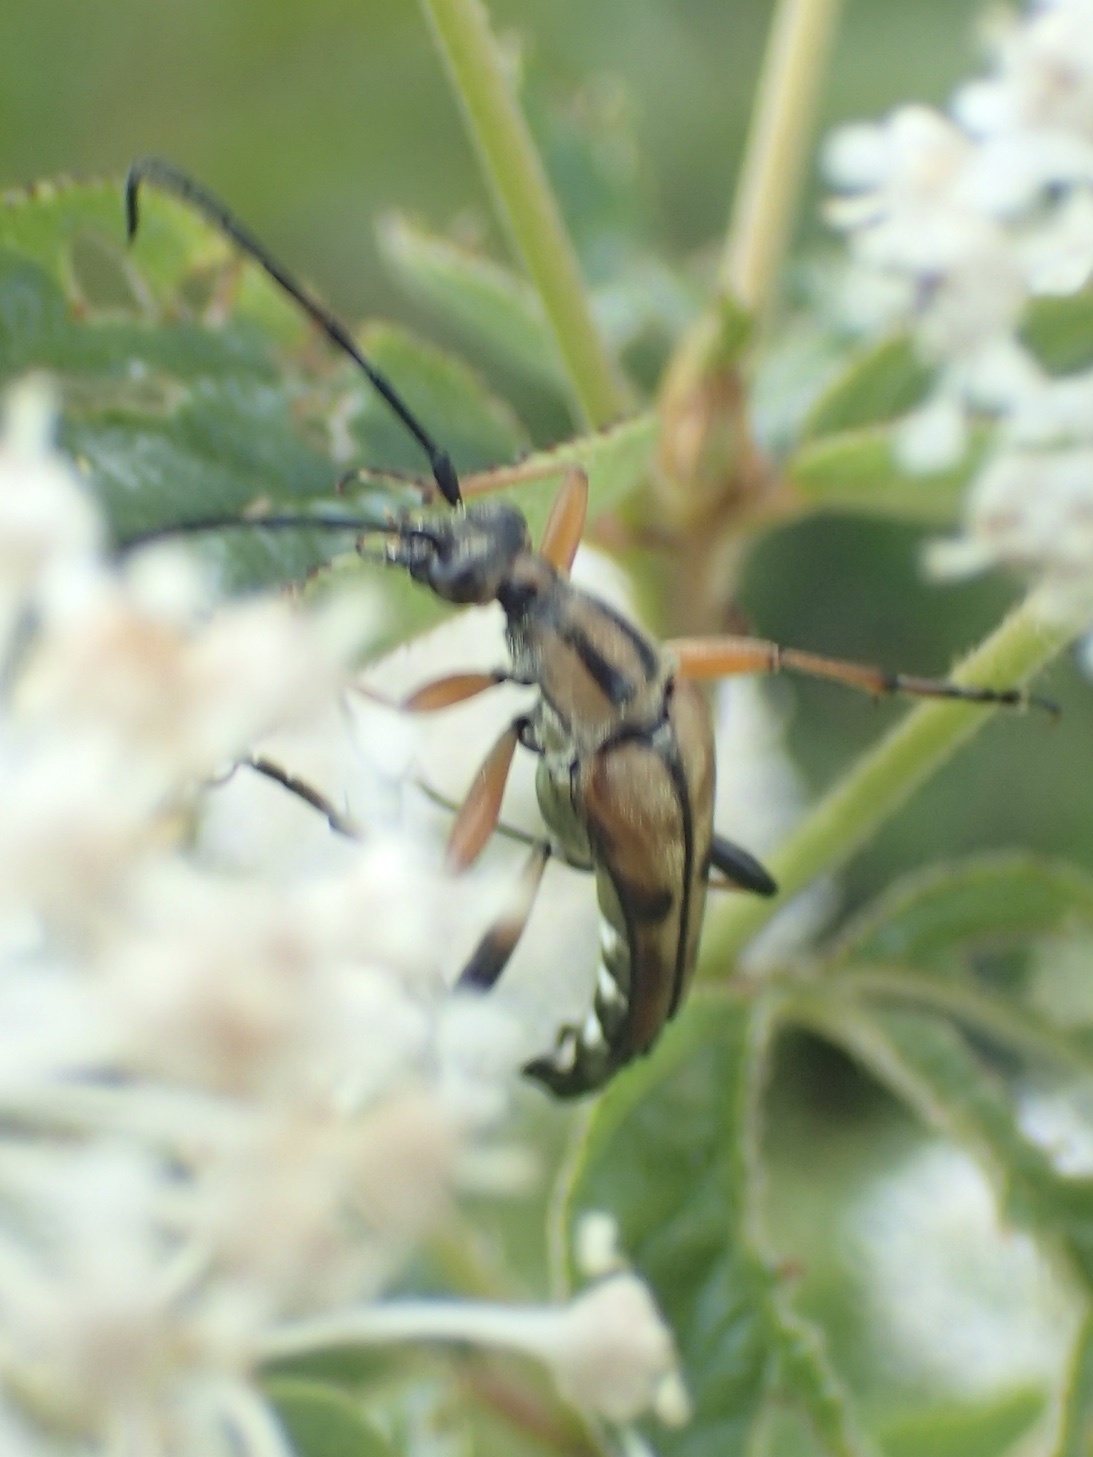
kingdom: Animalia
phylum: Arthropoda
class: Insecta
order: Coleoptera
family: Cerambycidae
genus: Strangalia
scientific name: Strangalia famelica
